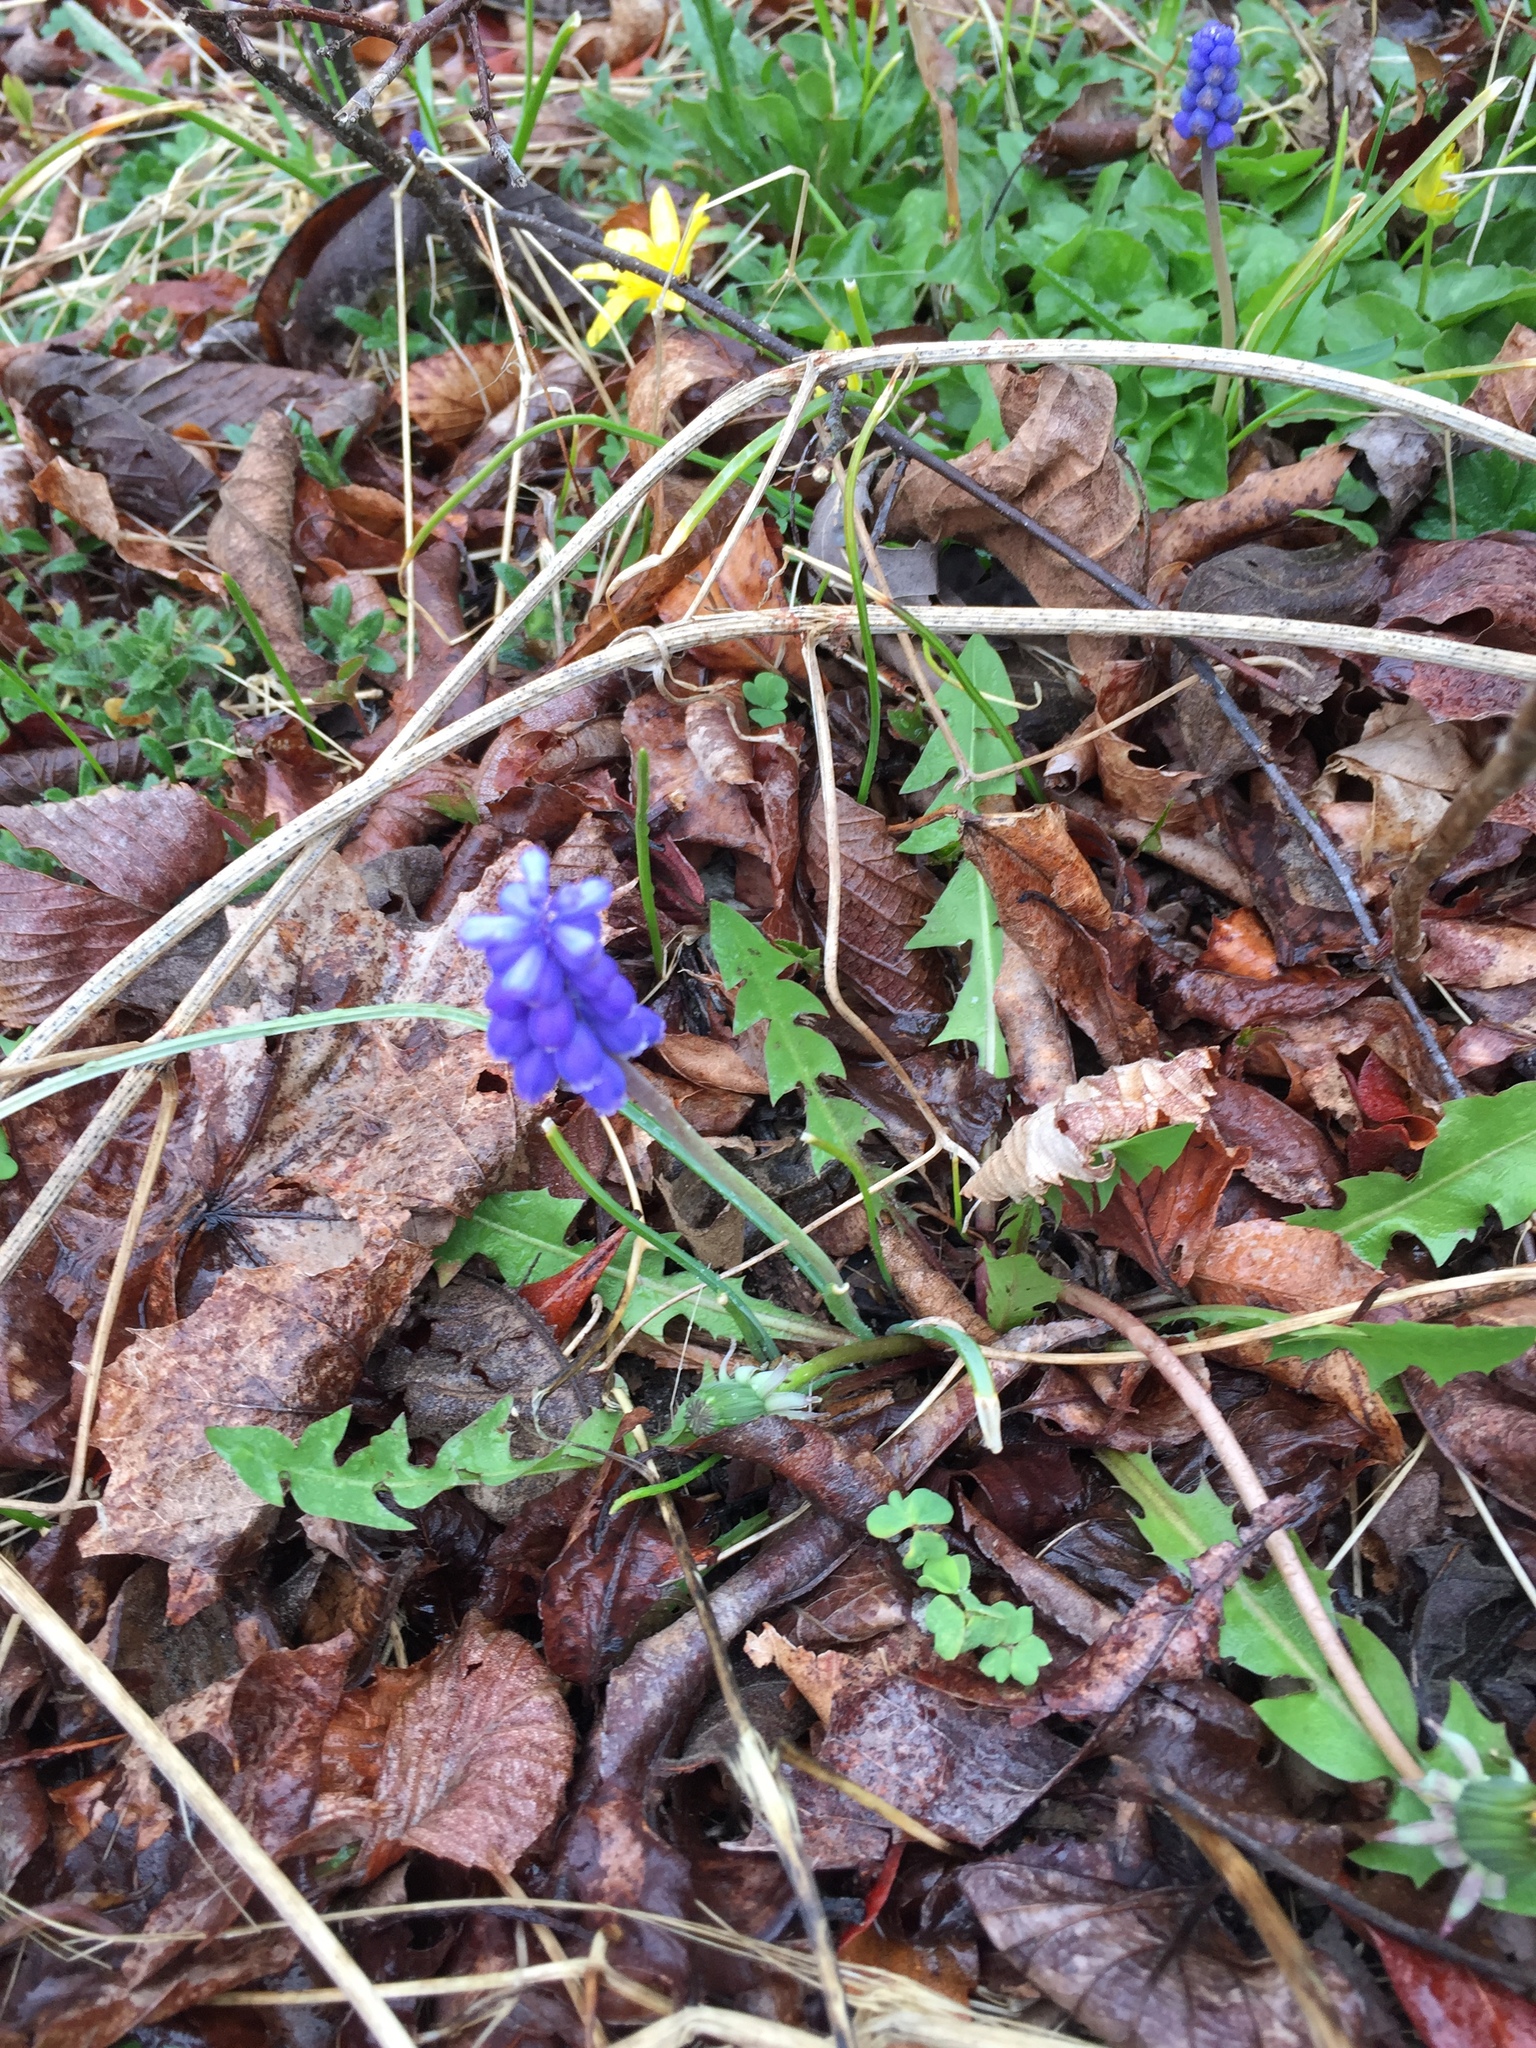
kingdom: Plantae
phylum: Tracheophyta
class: Liliopsida
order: Asparagales
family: Asparagaceae
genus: Muscari
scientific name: Muscari botryoides
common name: Compact grape-hyacinth
